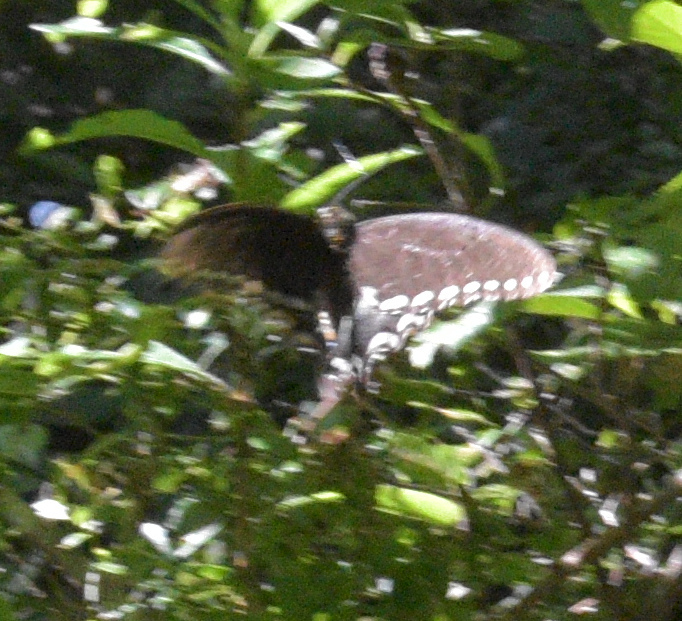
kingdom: Animalia
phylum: Arthropoda
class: Insecta
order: Lepidoptera
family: Papilionidae
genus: Papilio
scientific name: Papilio troilus
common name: Spicebush swallowtail
